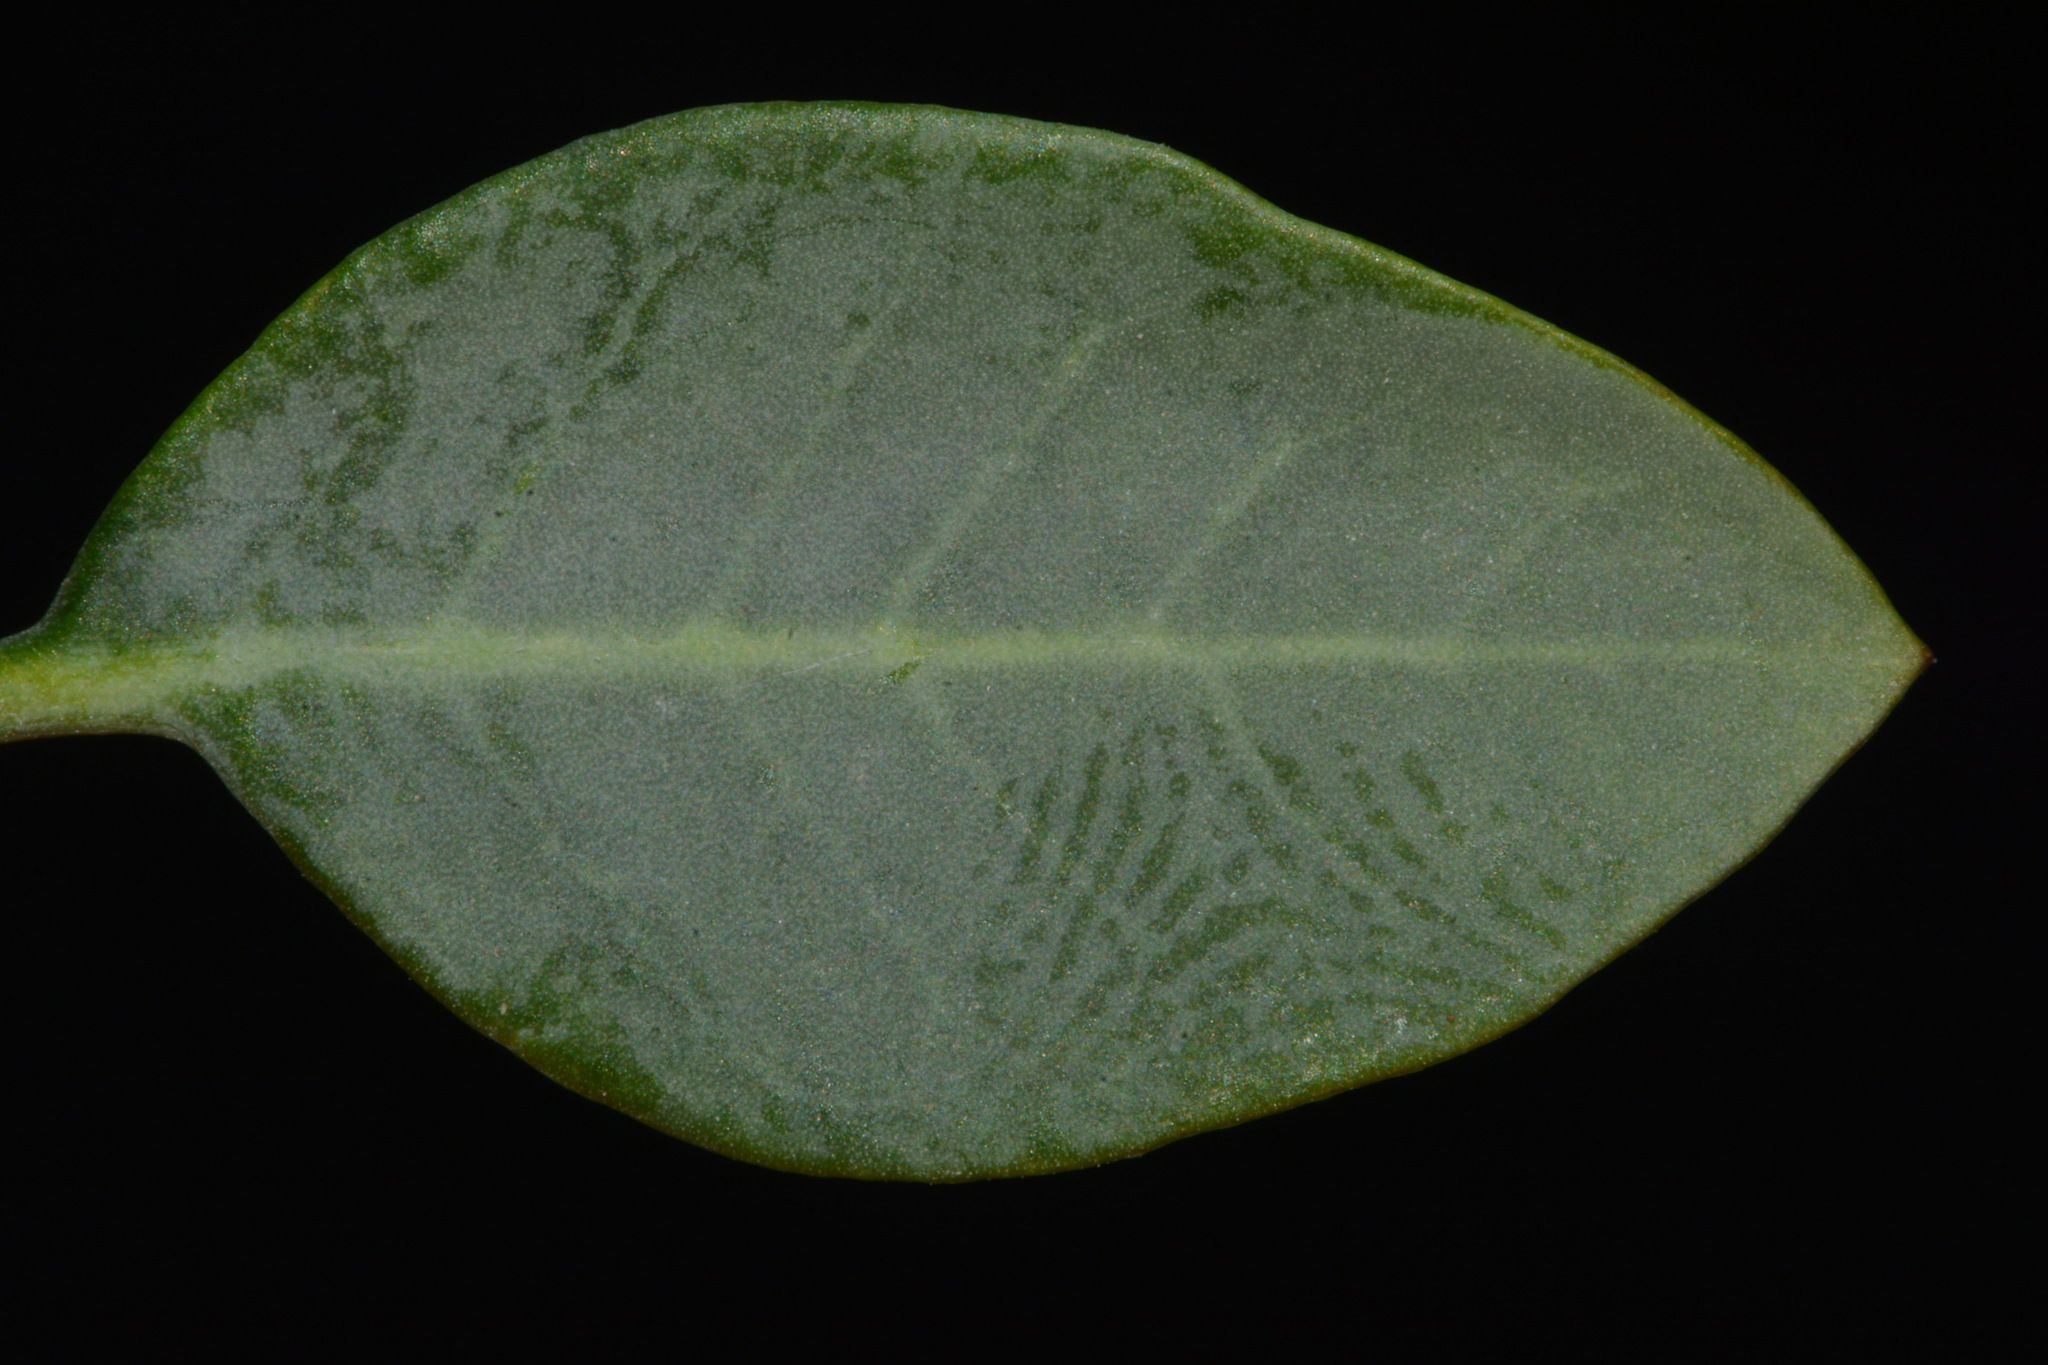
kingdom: Plantae
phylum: Tracheophyta
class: Magnoliopsida
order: Solanales
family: Solanaceae
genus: Nicotiana
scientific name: Nicotiana glauca
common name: Tree tobacco
